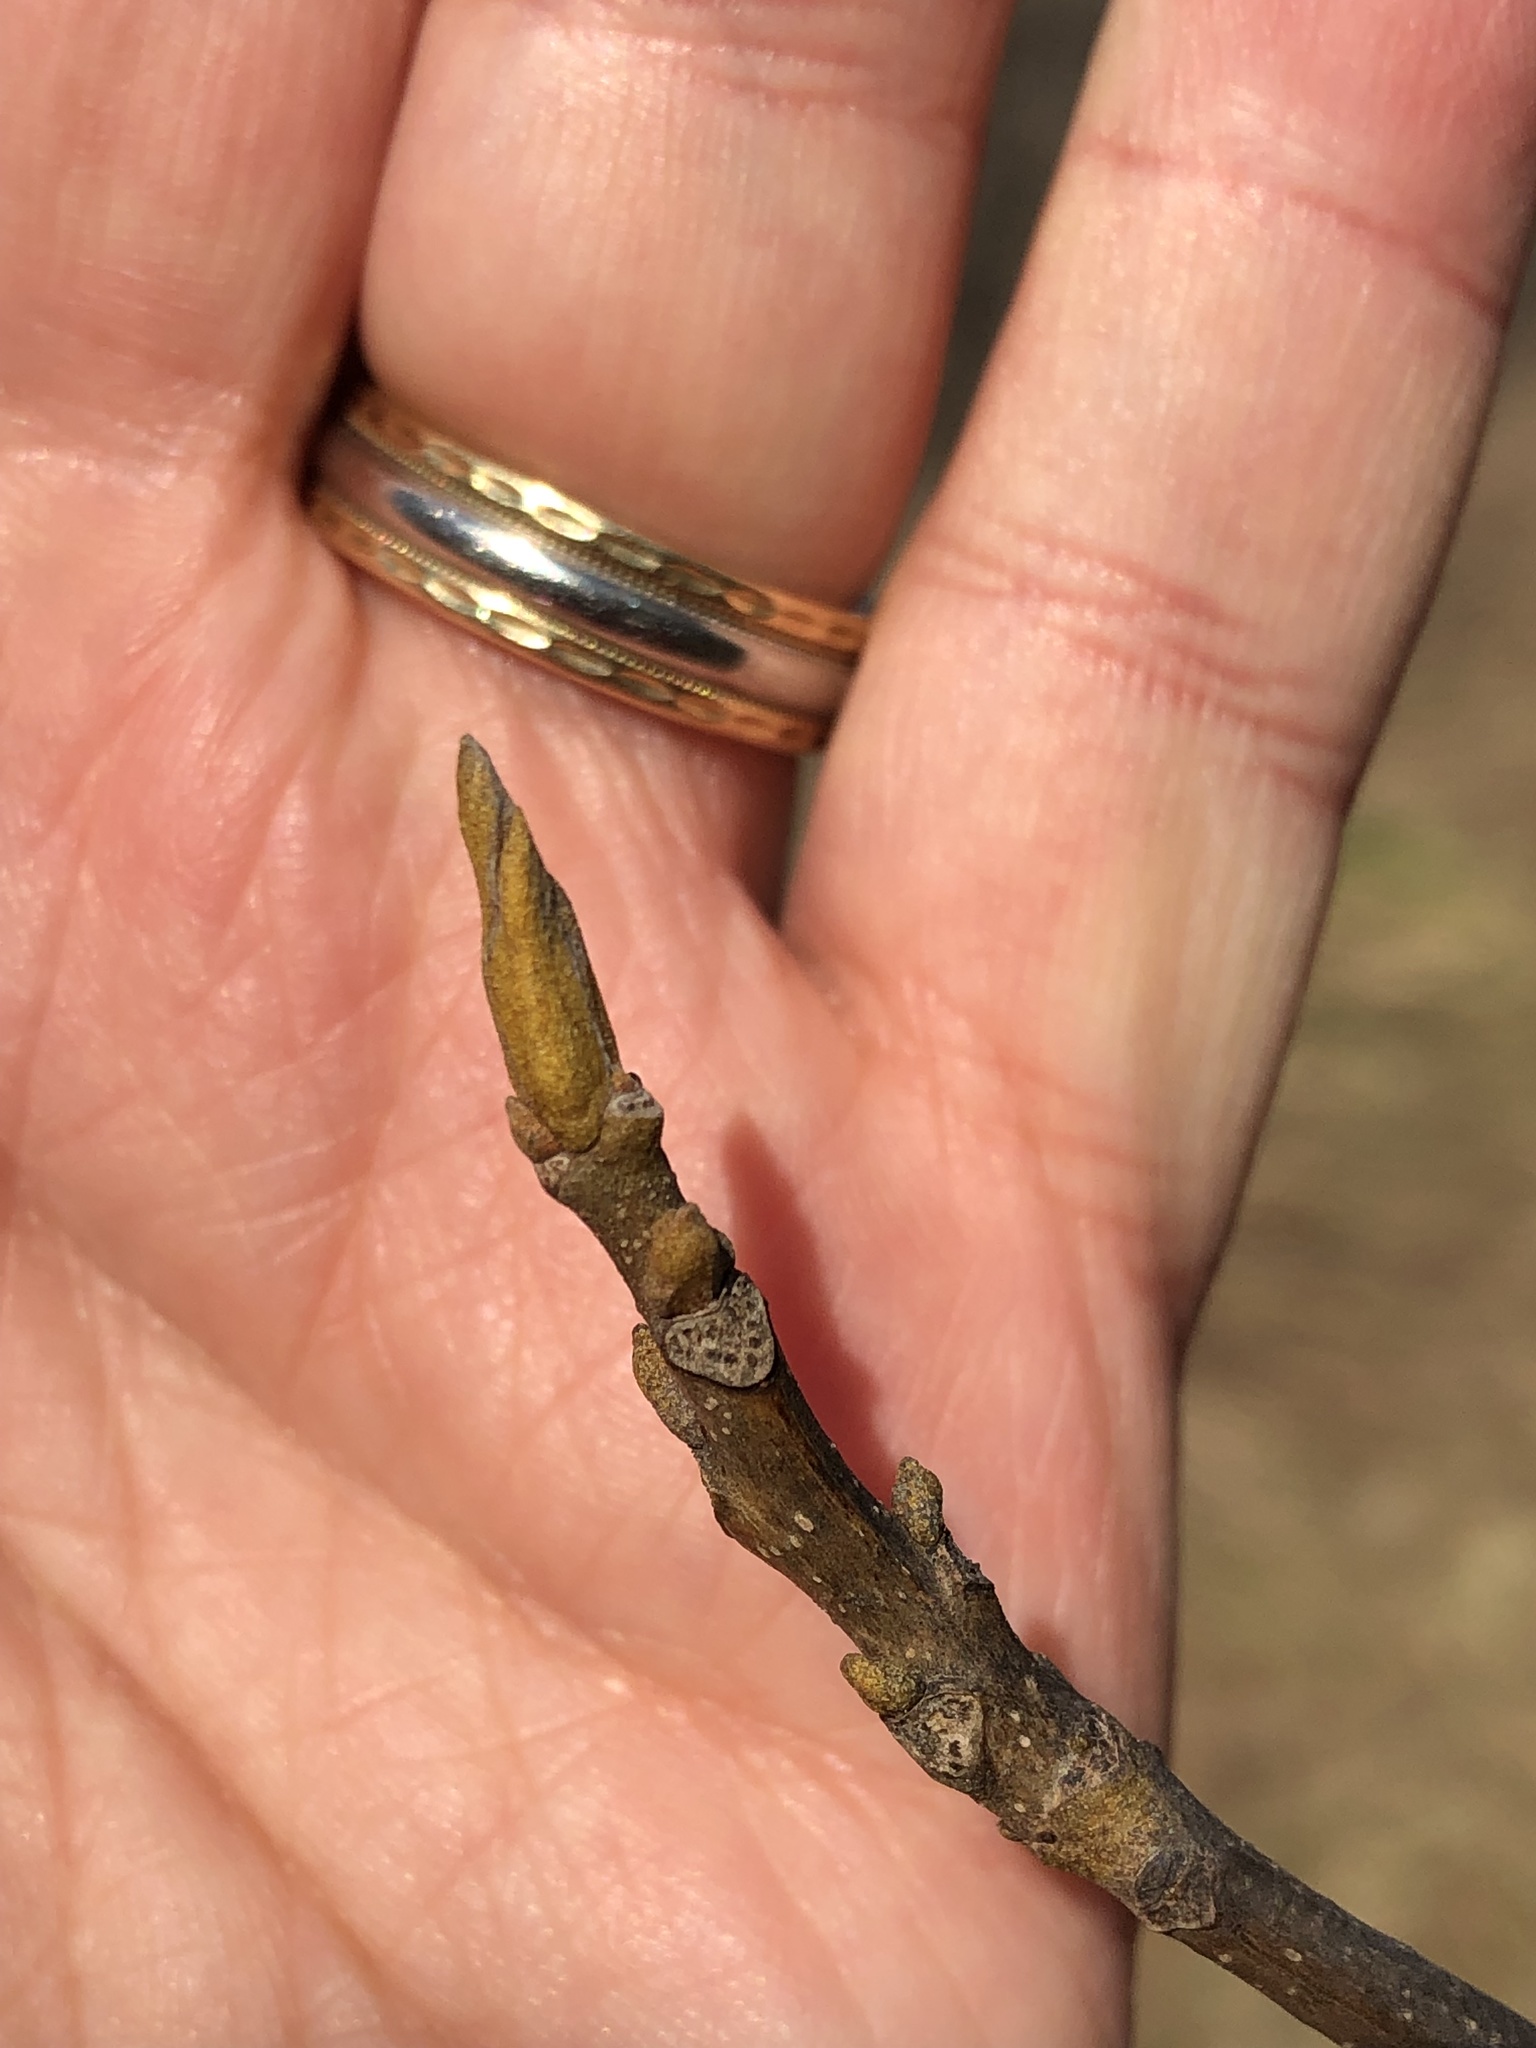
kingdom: Plantae
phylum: Tracheophyta
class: Magnoliopsida
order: Fagales
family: Juglandaceae
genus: Carya
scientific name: Carya cordiformis
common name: Bitternut hickory
